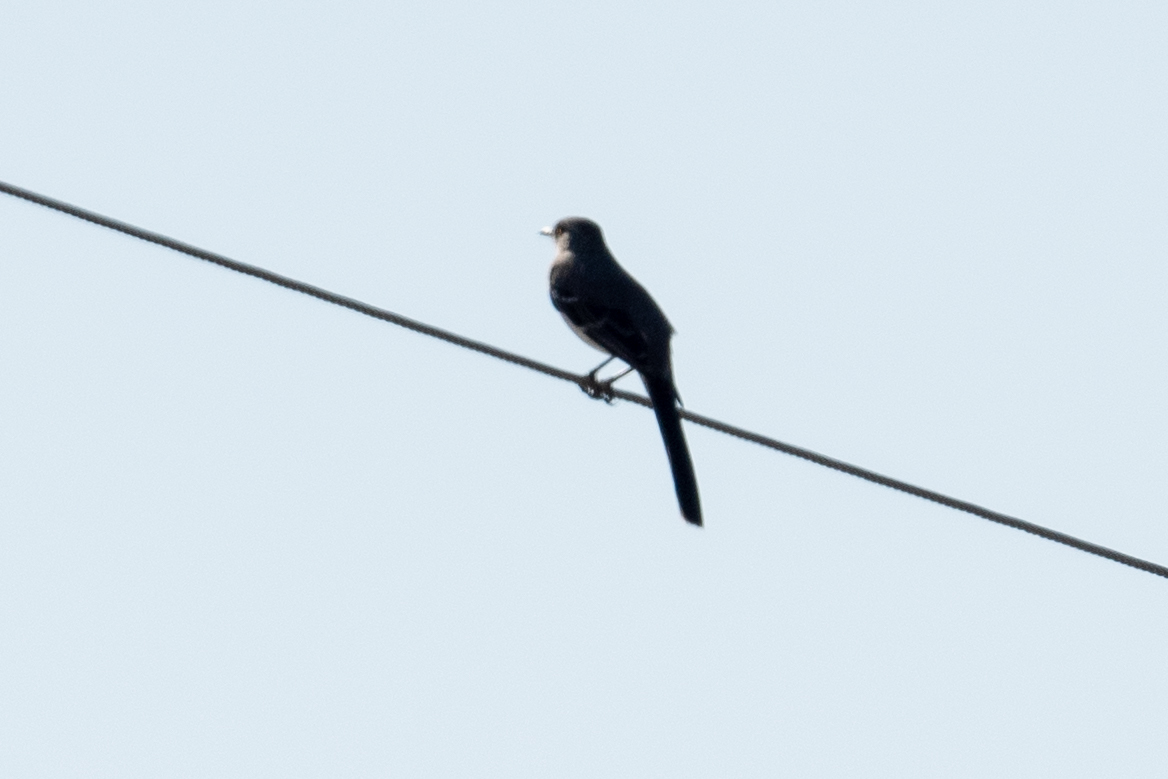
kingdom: Animalia
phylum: Chordata
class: Aves
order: Passeriformes
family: Mimidae
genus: Mimus
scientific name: Mimus polyglottos
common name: Northern mockingbird
